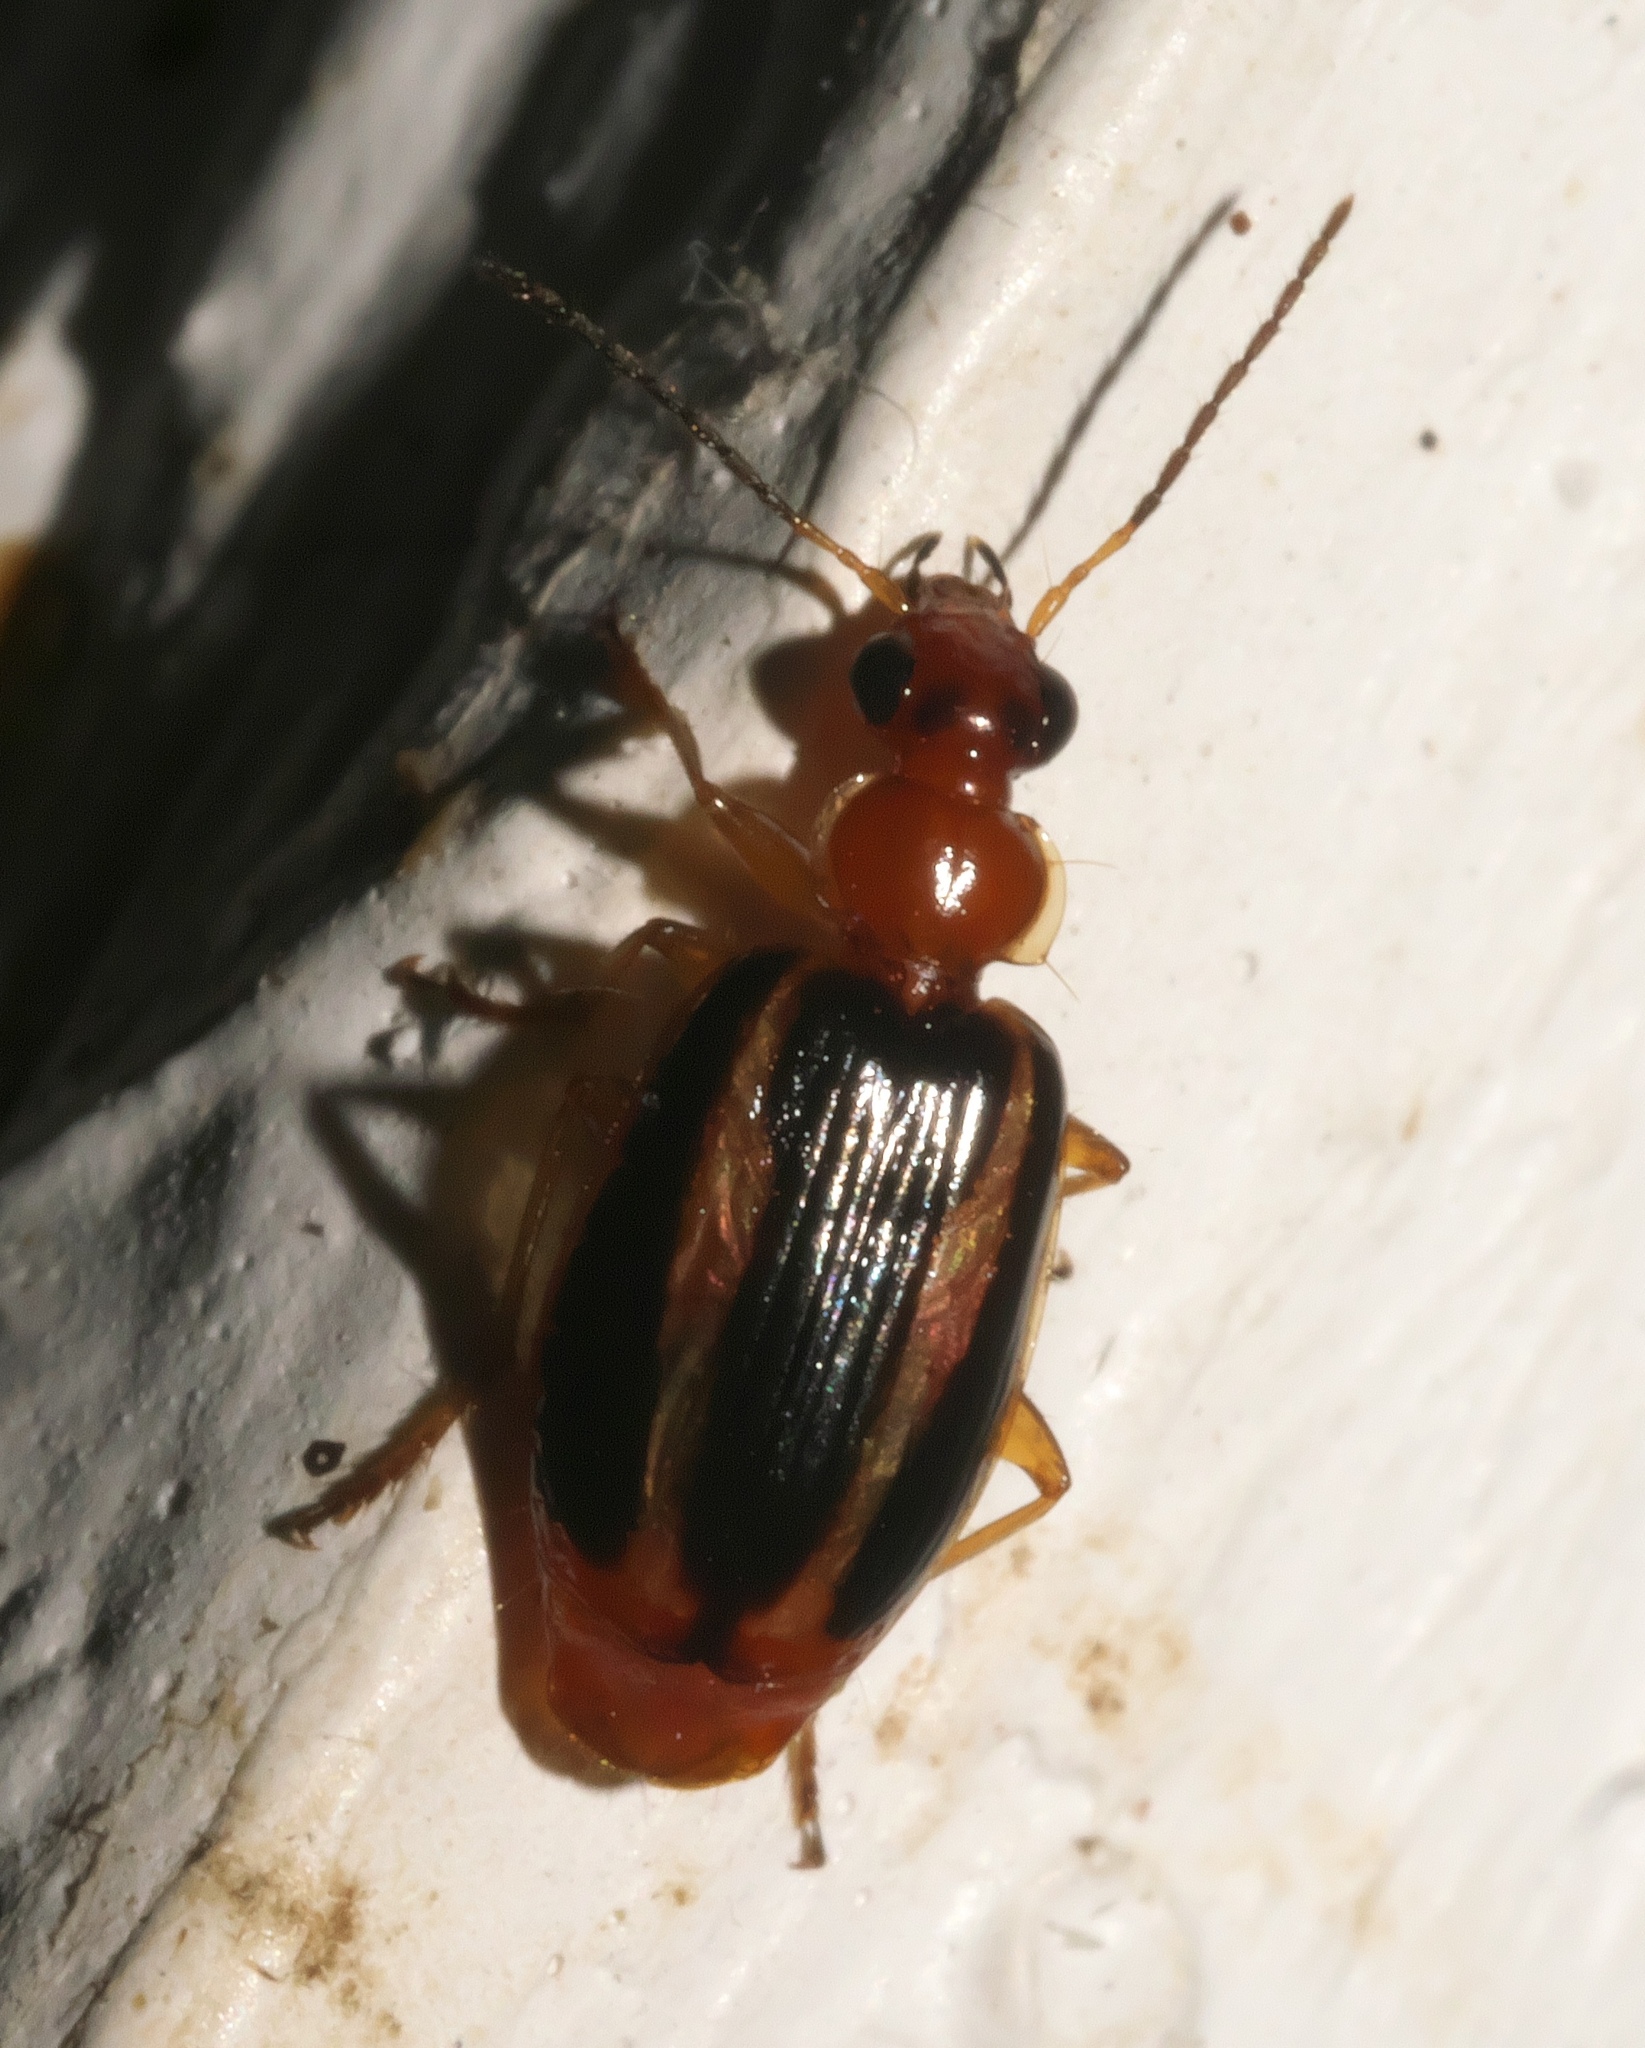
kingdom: Animalia
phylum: Arthropoda
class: Insecta
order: Coleoptera
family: Carabidae
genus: Lebia
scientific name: Lebia solea
